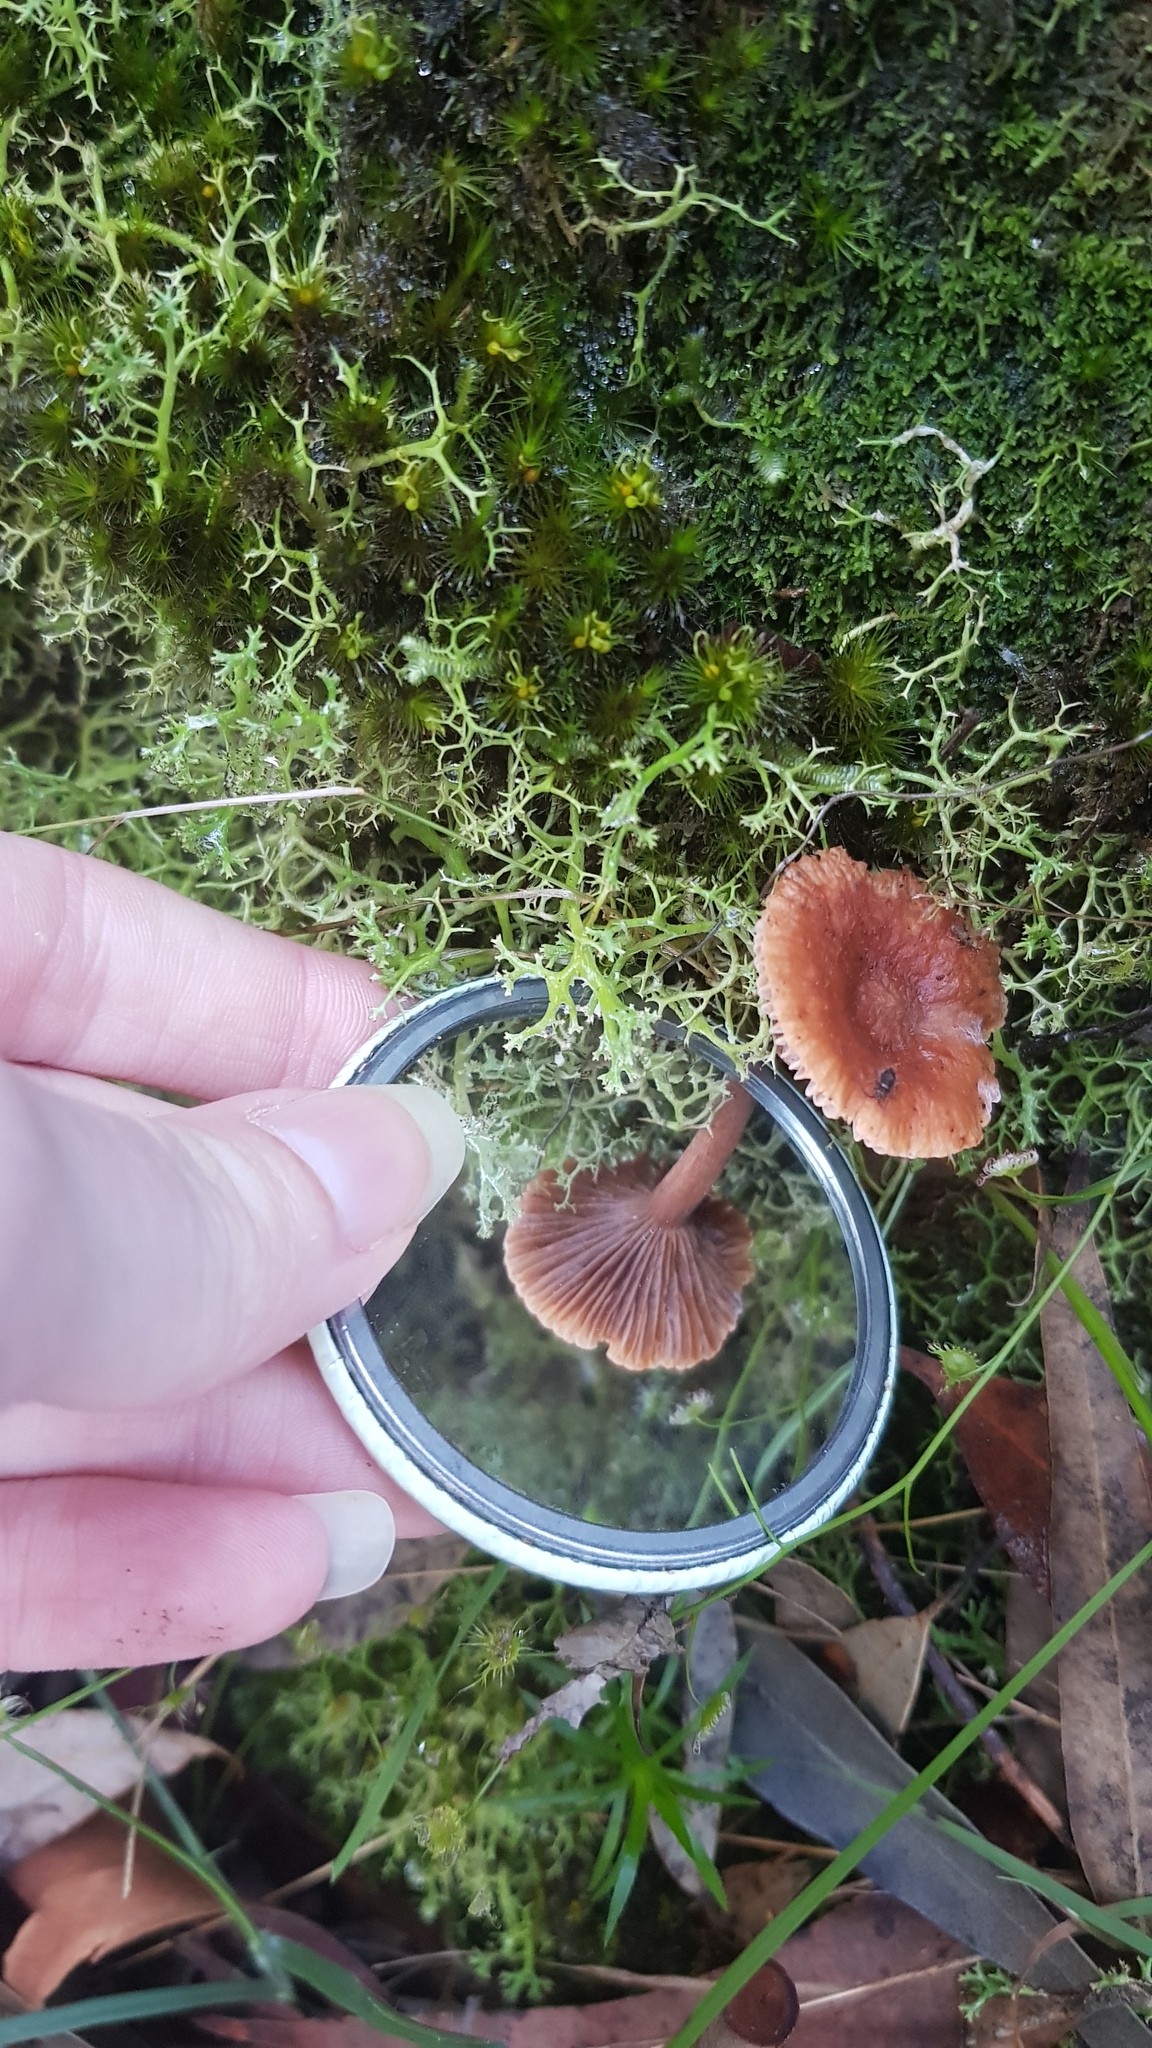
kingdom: Fungi
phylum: Basidiomycota
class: Agaricomycetes
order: Russulales
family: Russulaceae
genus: Lactarius
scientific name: Lactarius eucalypti
